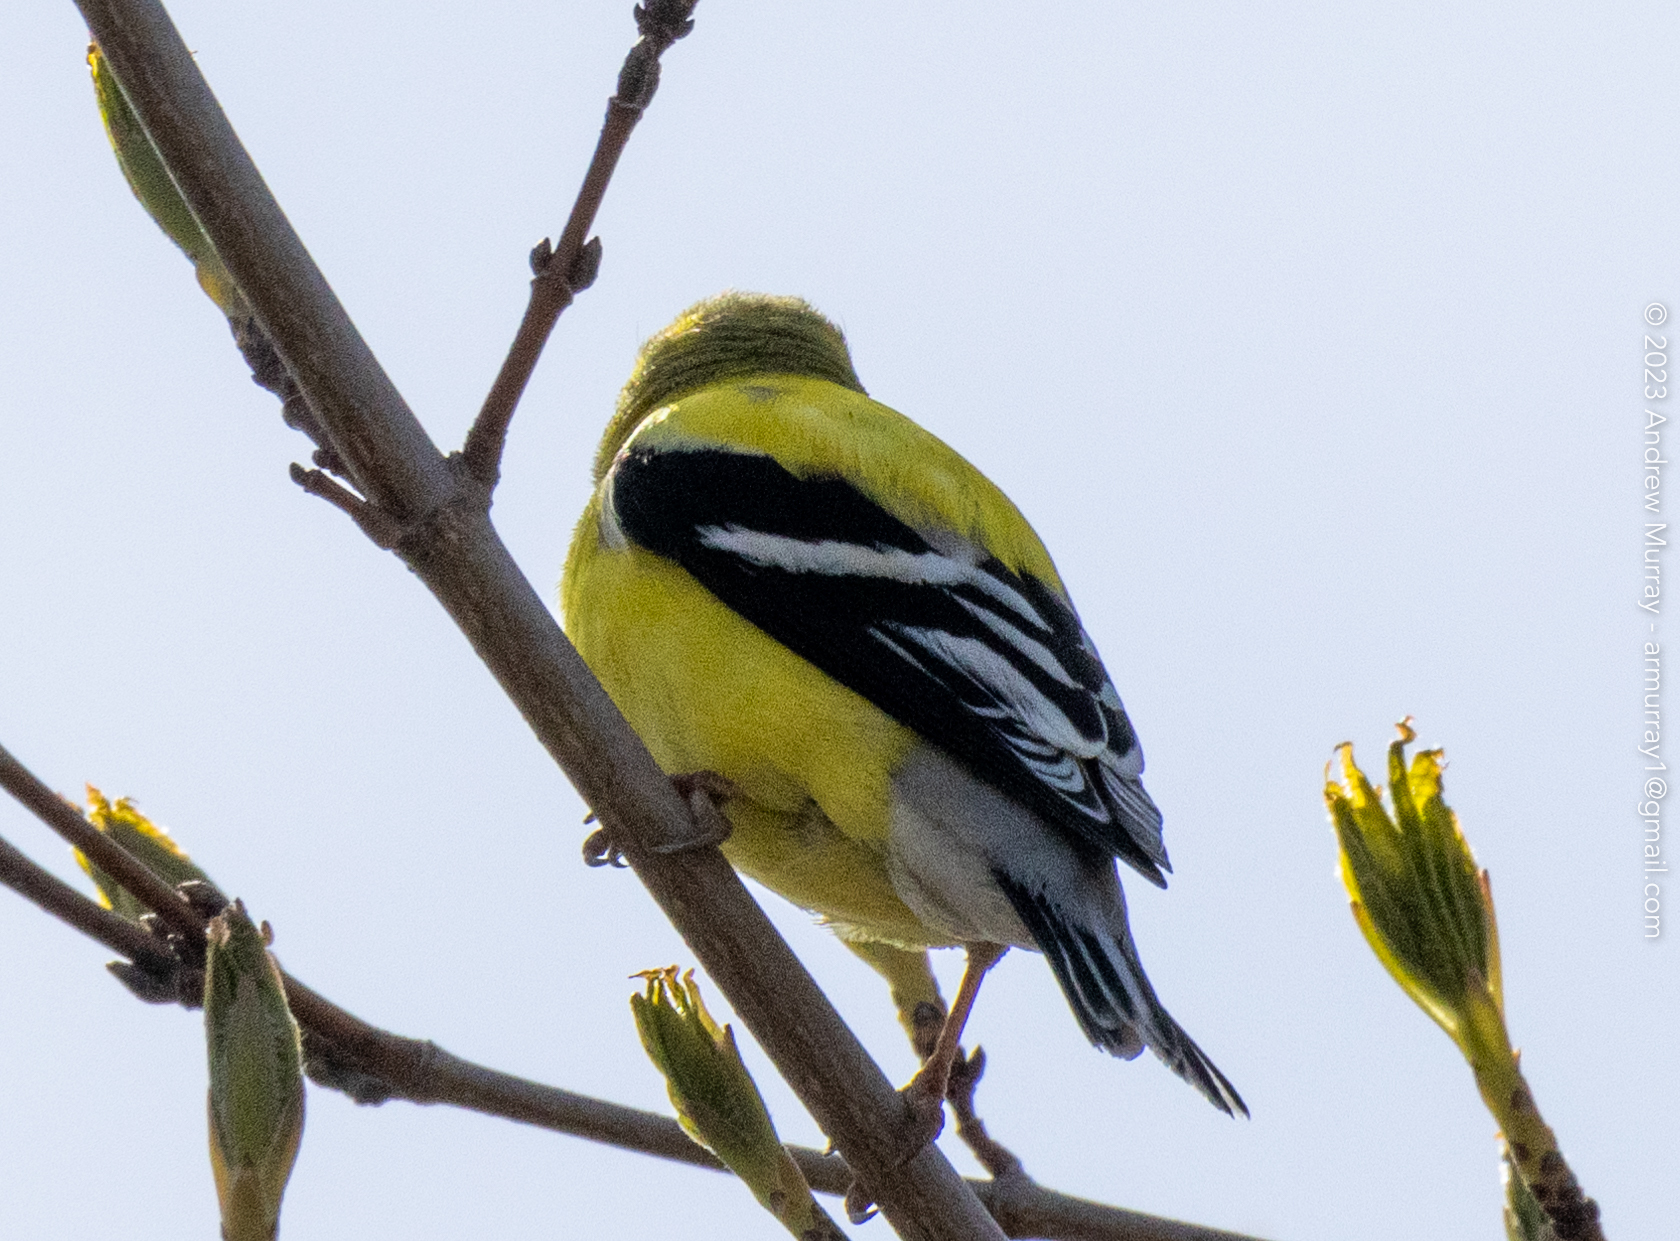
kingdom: Animalia
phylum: Chordata
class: Aves
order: Passeriformes
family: Fringillidae
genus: Spinus
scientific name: Spinus tristis
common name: American goldfinch
